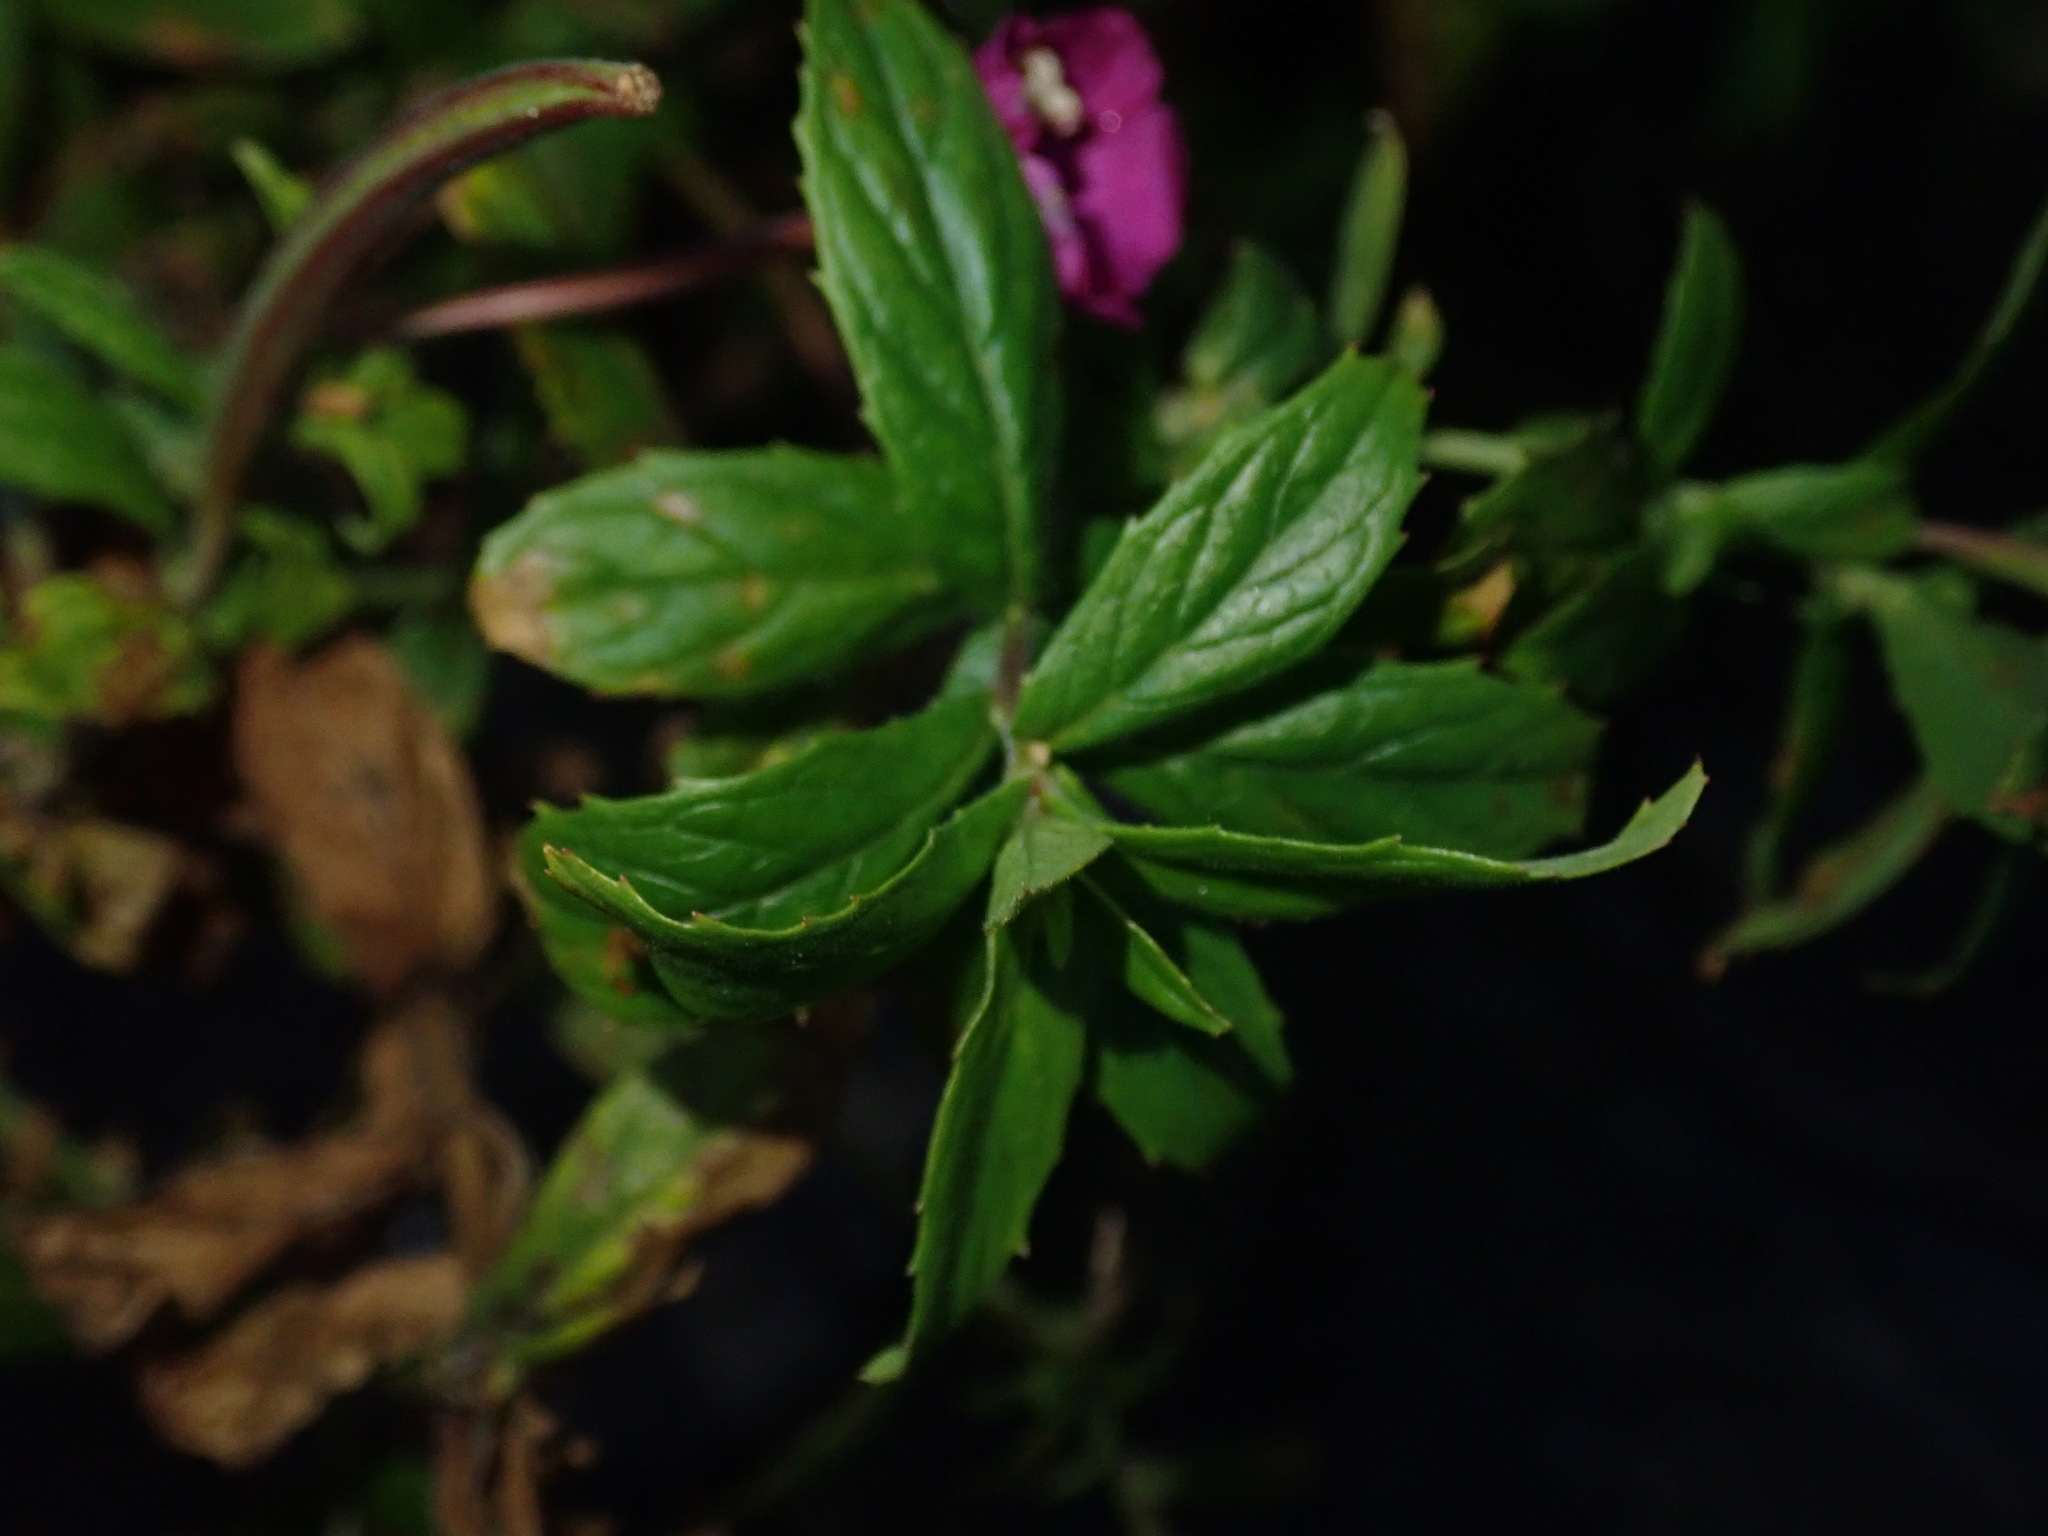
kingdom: Plantae
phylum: Tracheophyta
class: Magnoliopsida
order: Myrtales
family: Onagraceae
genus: Epilobium
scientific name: Epilobium hirsutum
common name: Great willowherb
